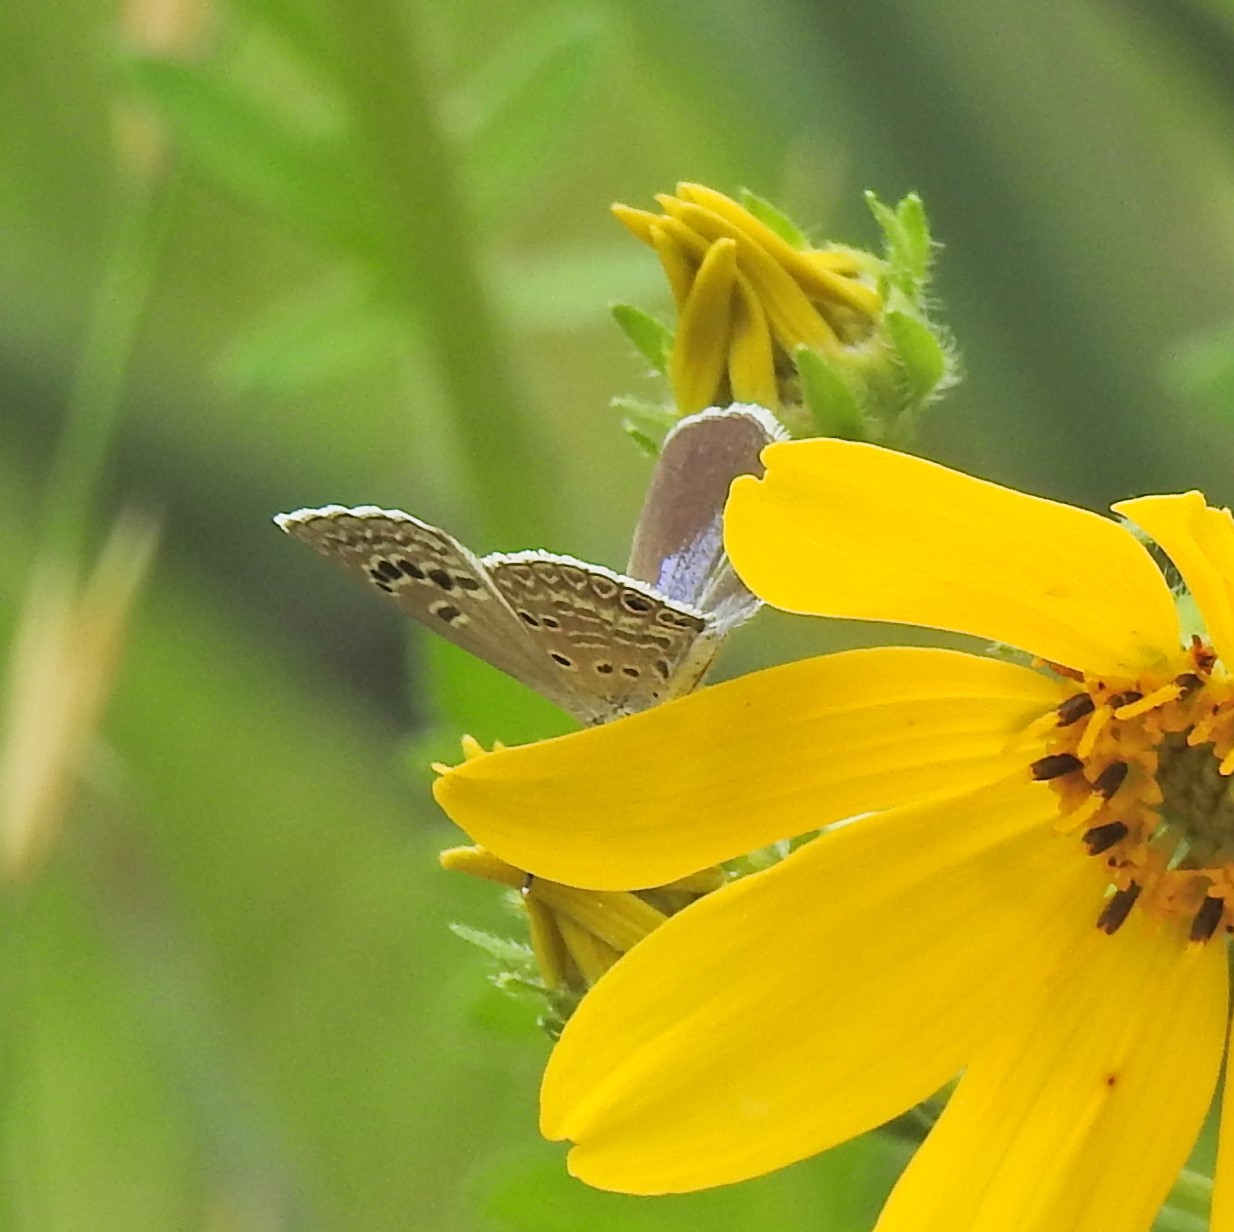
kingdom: Animalia
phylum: Arthropoda
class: Insecta
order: Lepidoptera
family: Lycaenidae
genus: Echinargus
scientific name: Echinargus isola
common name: Reakirt's blue
